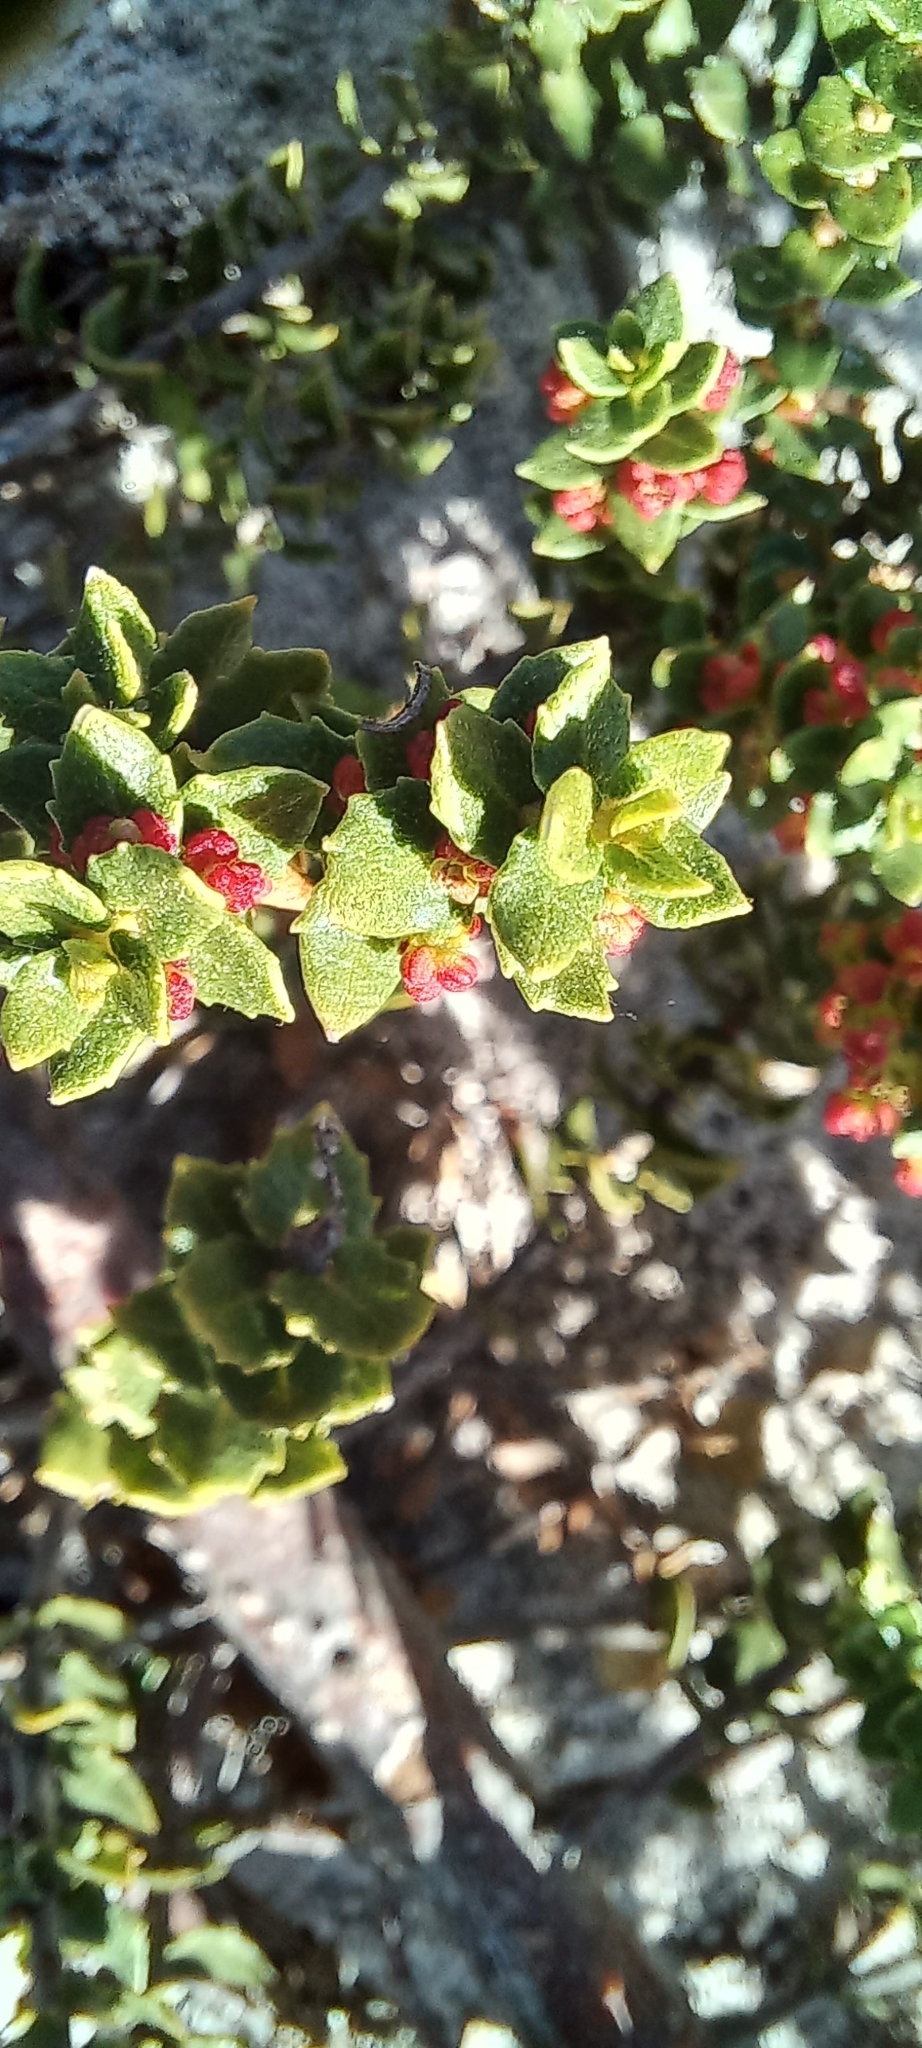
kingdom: Plantae
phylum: Tracheophyta
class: Magnoliopsida
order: Fagales
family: Myricaceae
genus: Morella
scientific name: Morella cordifolia
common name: Waxberry
